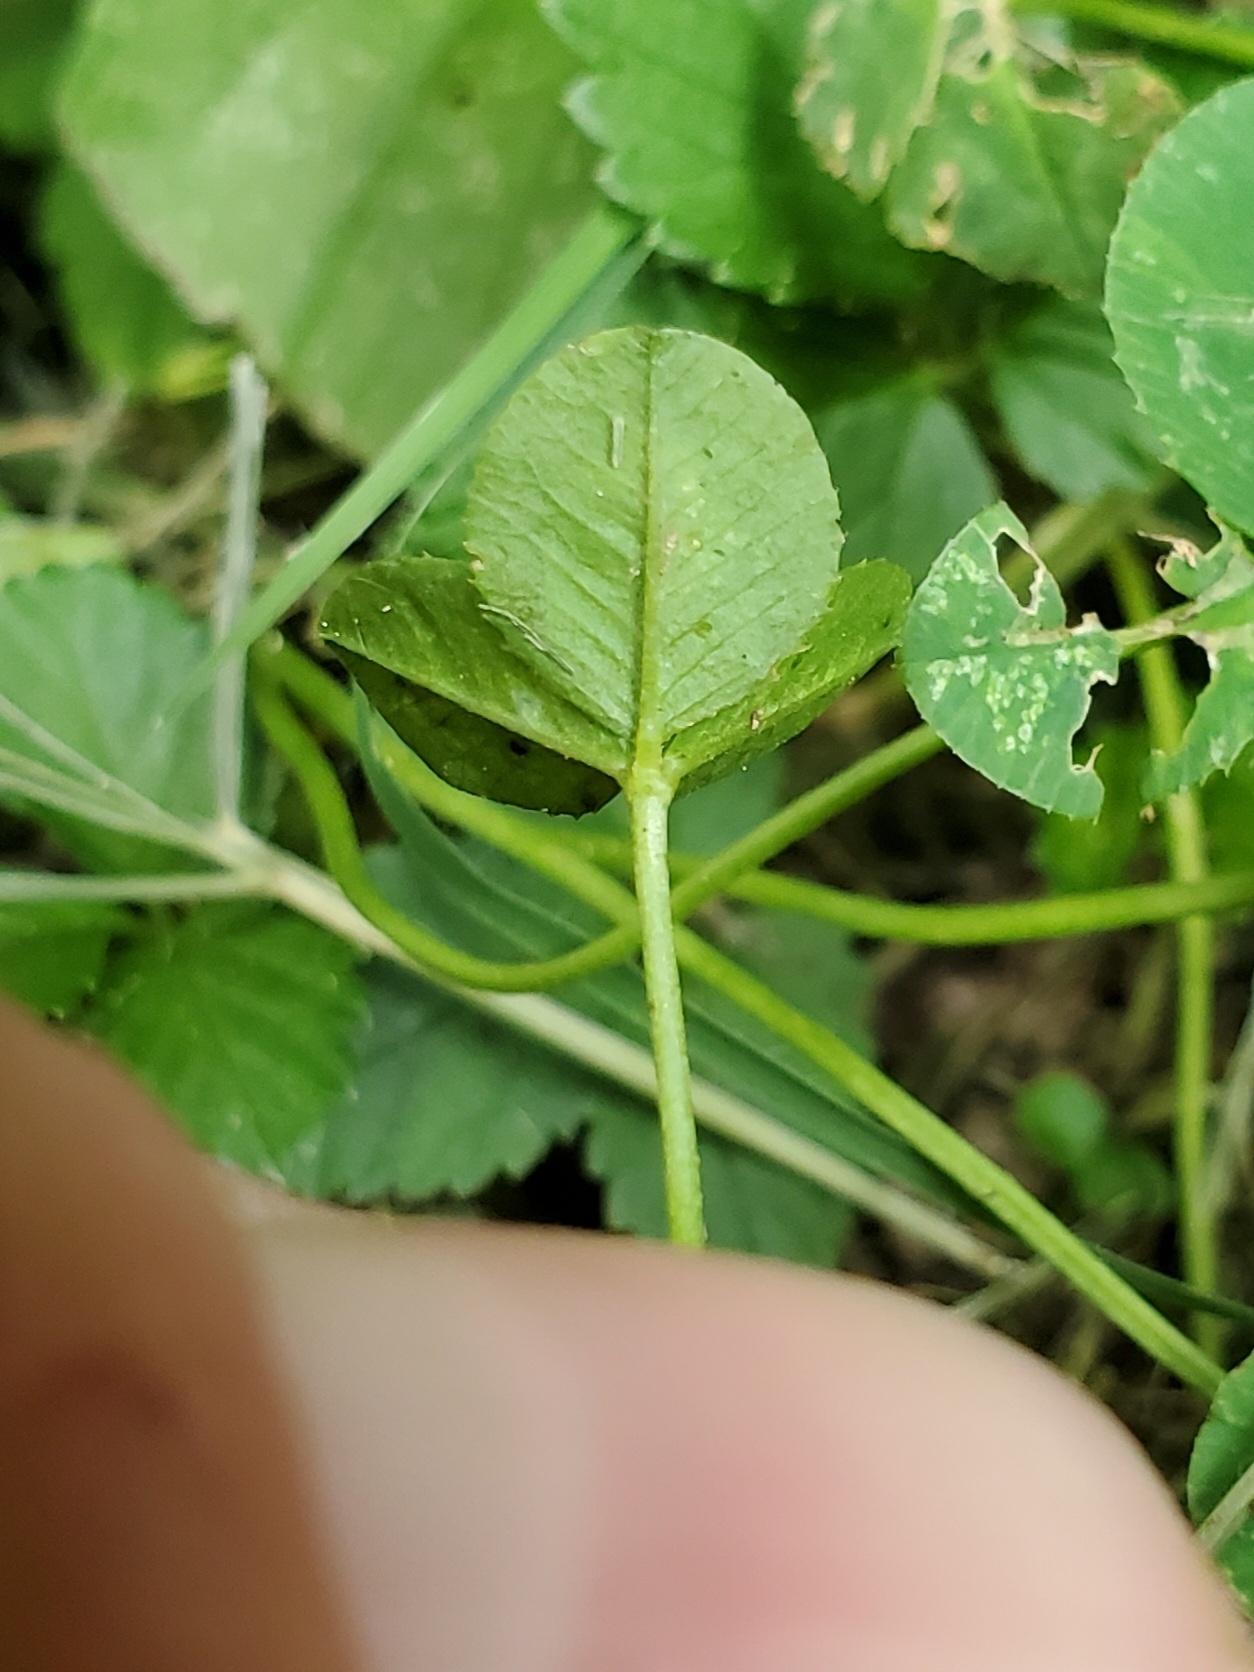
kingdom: Animalia
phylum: Arthropoda
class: Insecta
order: Lepidoptera
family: Gracillariidae
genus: Porphyrosela
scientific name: Porphyrosela minuta
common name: Leaf miner moth
